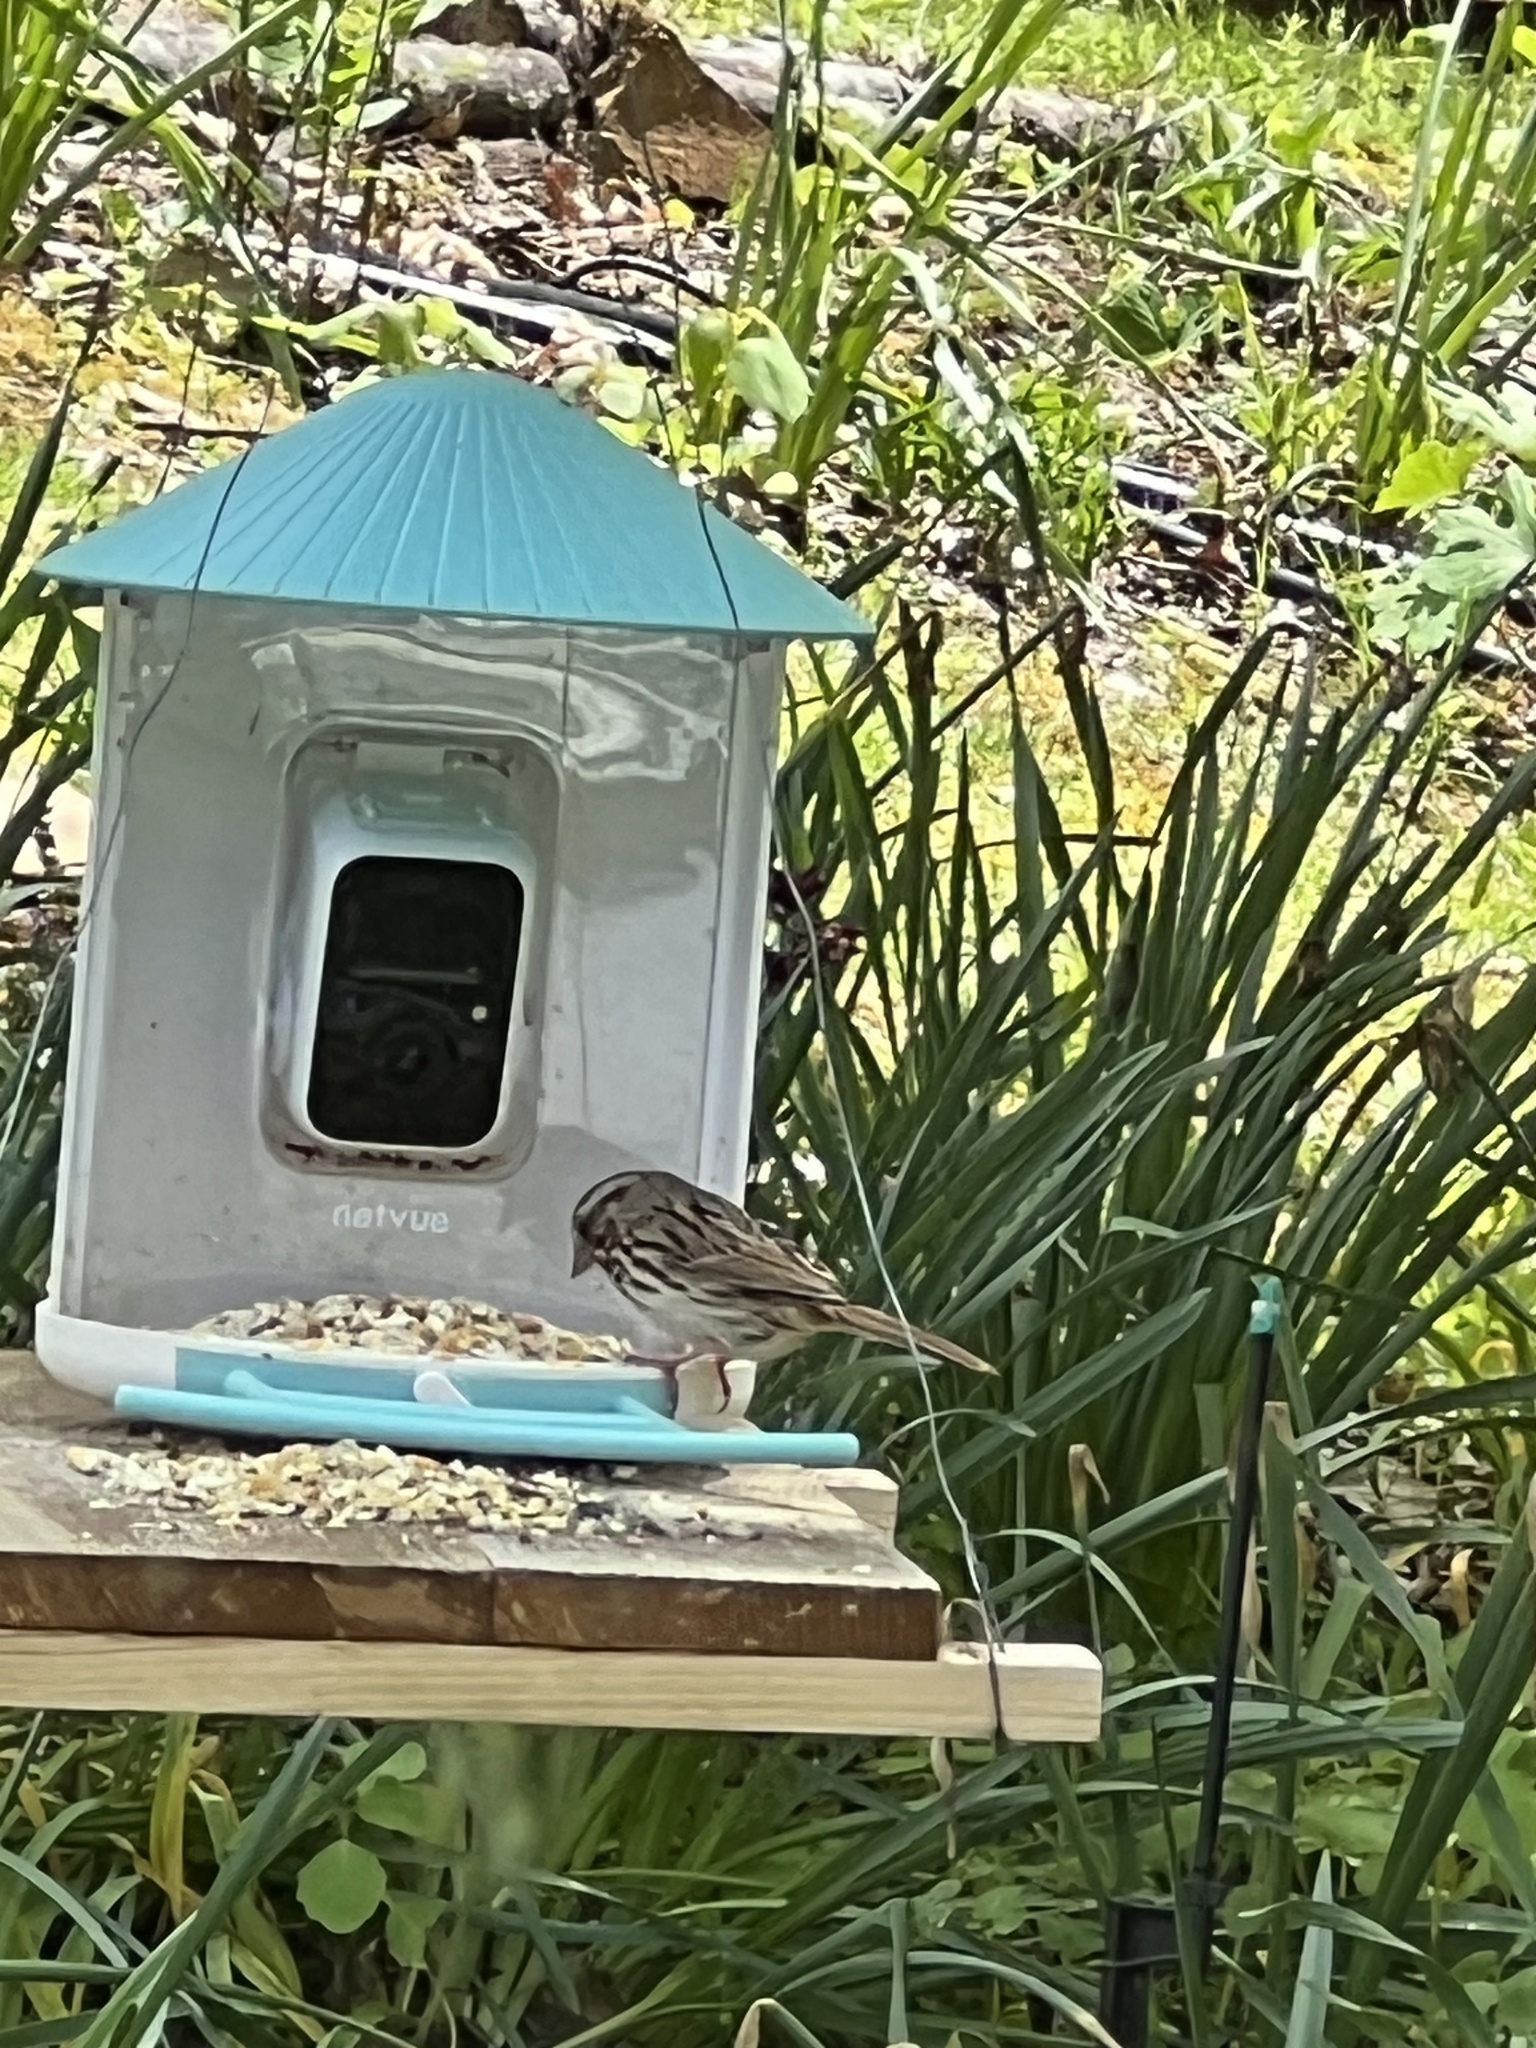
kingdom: Animalia
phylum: Chordata
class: Aves
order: Passeriformes
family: Passerellidae
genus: Melospiza
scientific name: Melospiza melodia
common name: Song sparrow
